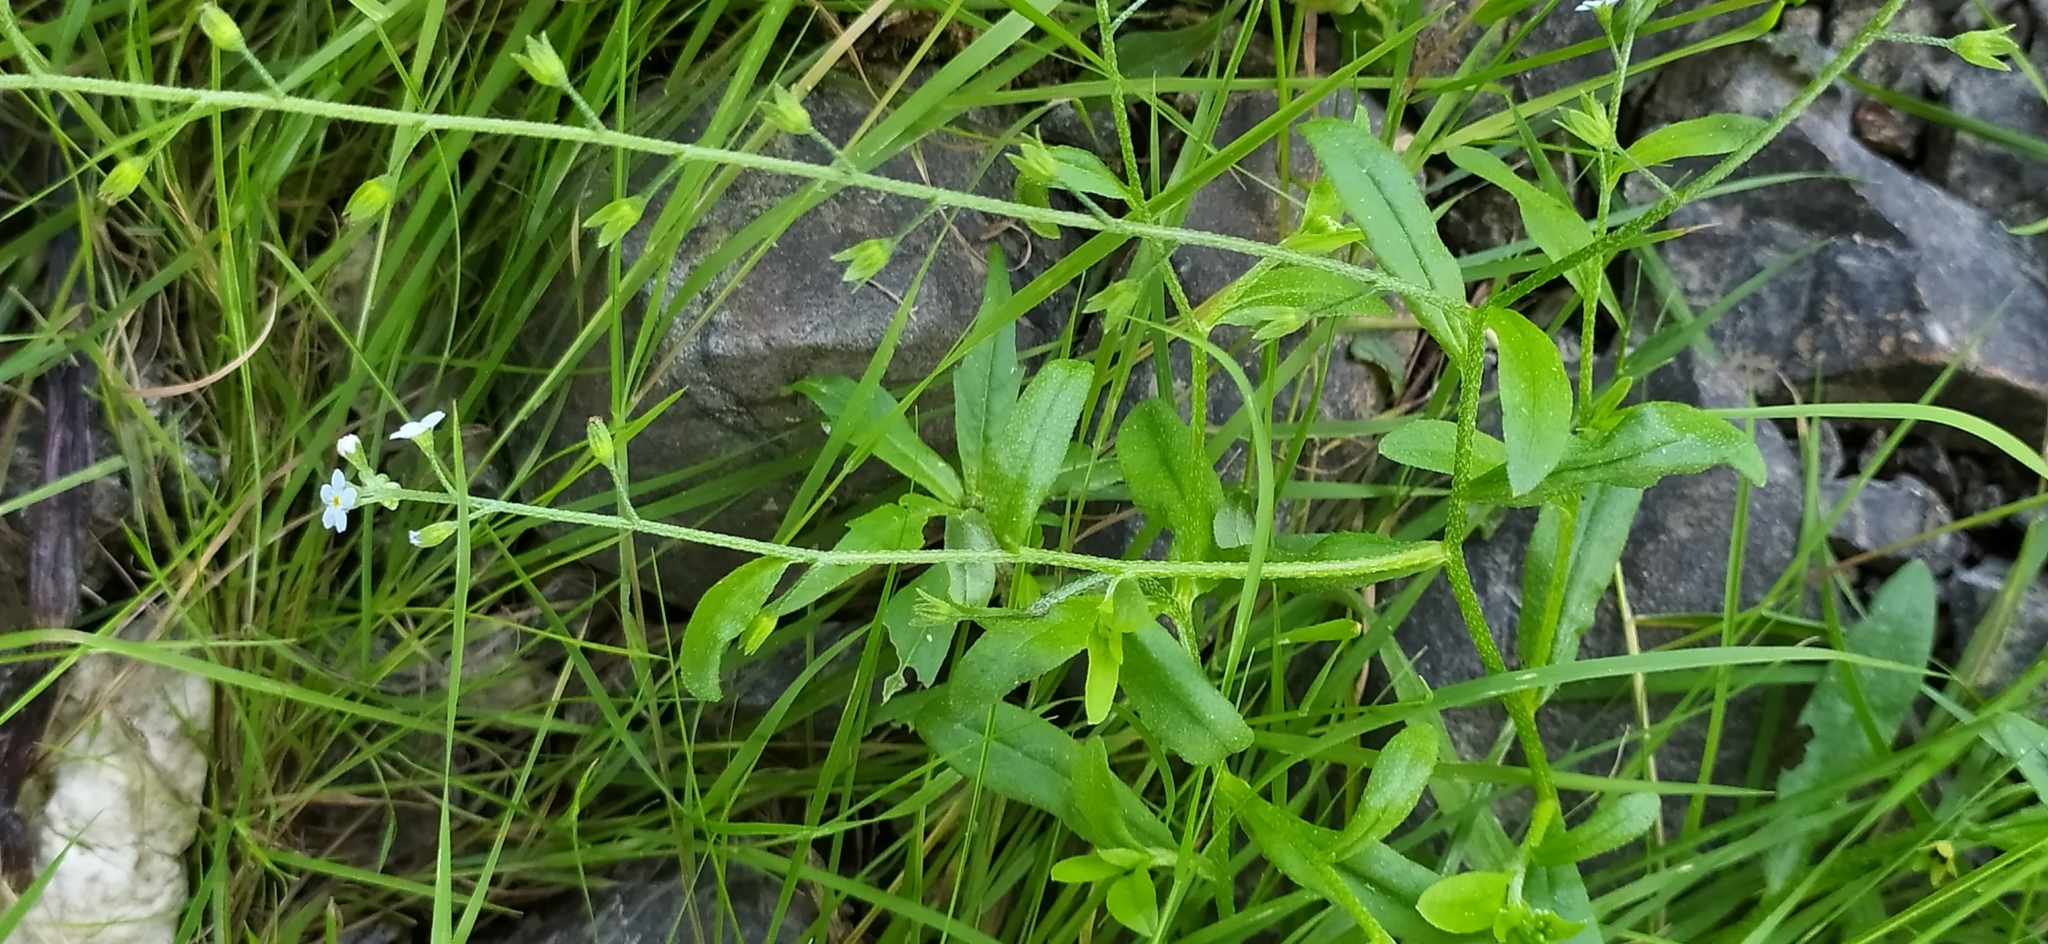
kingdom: Plantae
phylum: Tracheophyta
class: Magnoliopsida
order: Boraginales
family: Boraginaceae
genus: Myosotis
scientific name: Myosotis scorpioides
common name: Water forget-me-not
